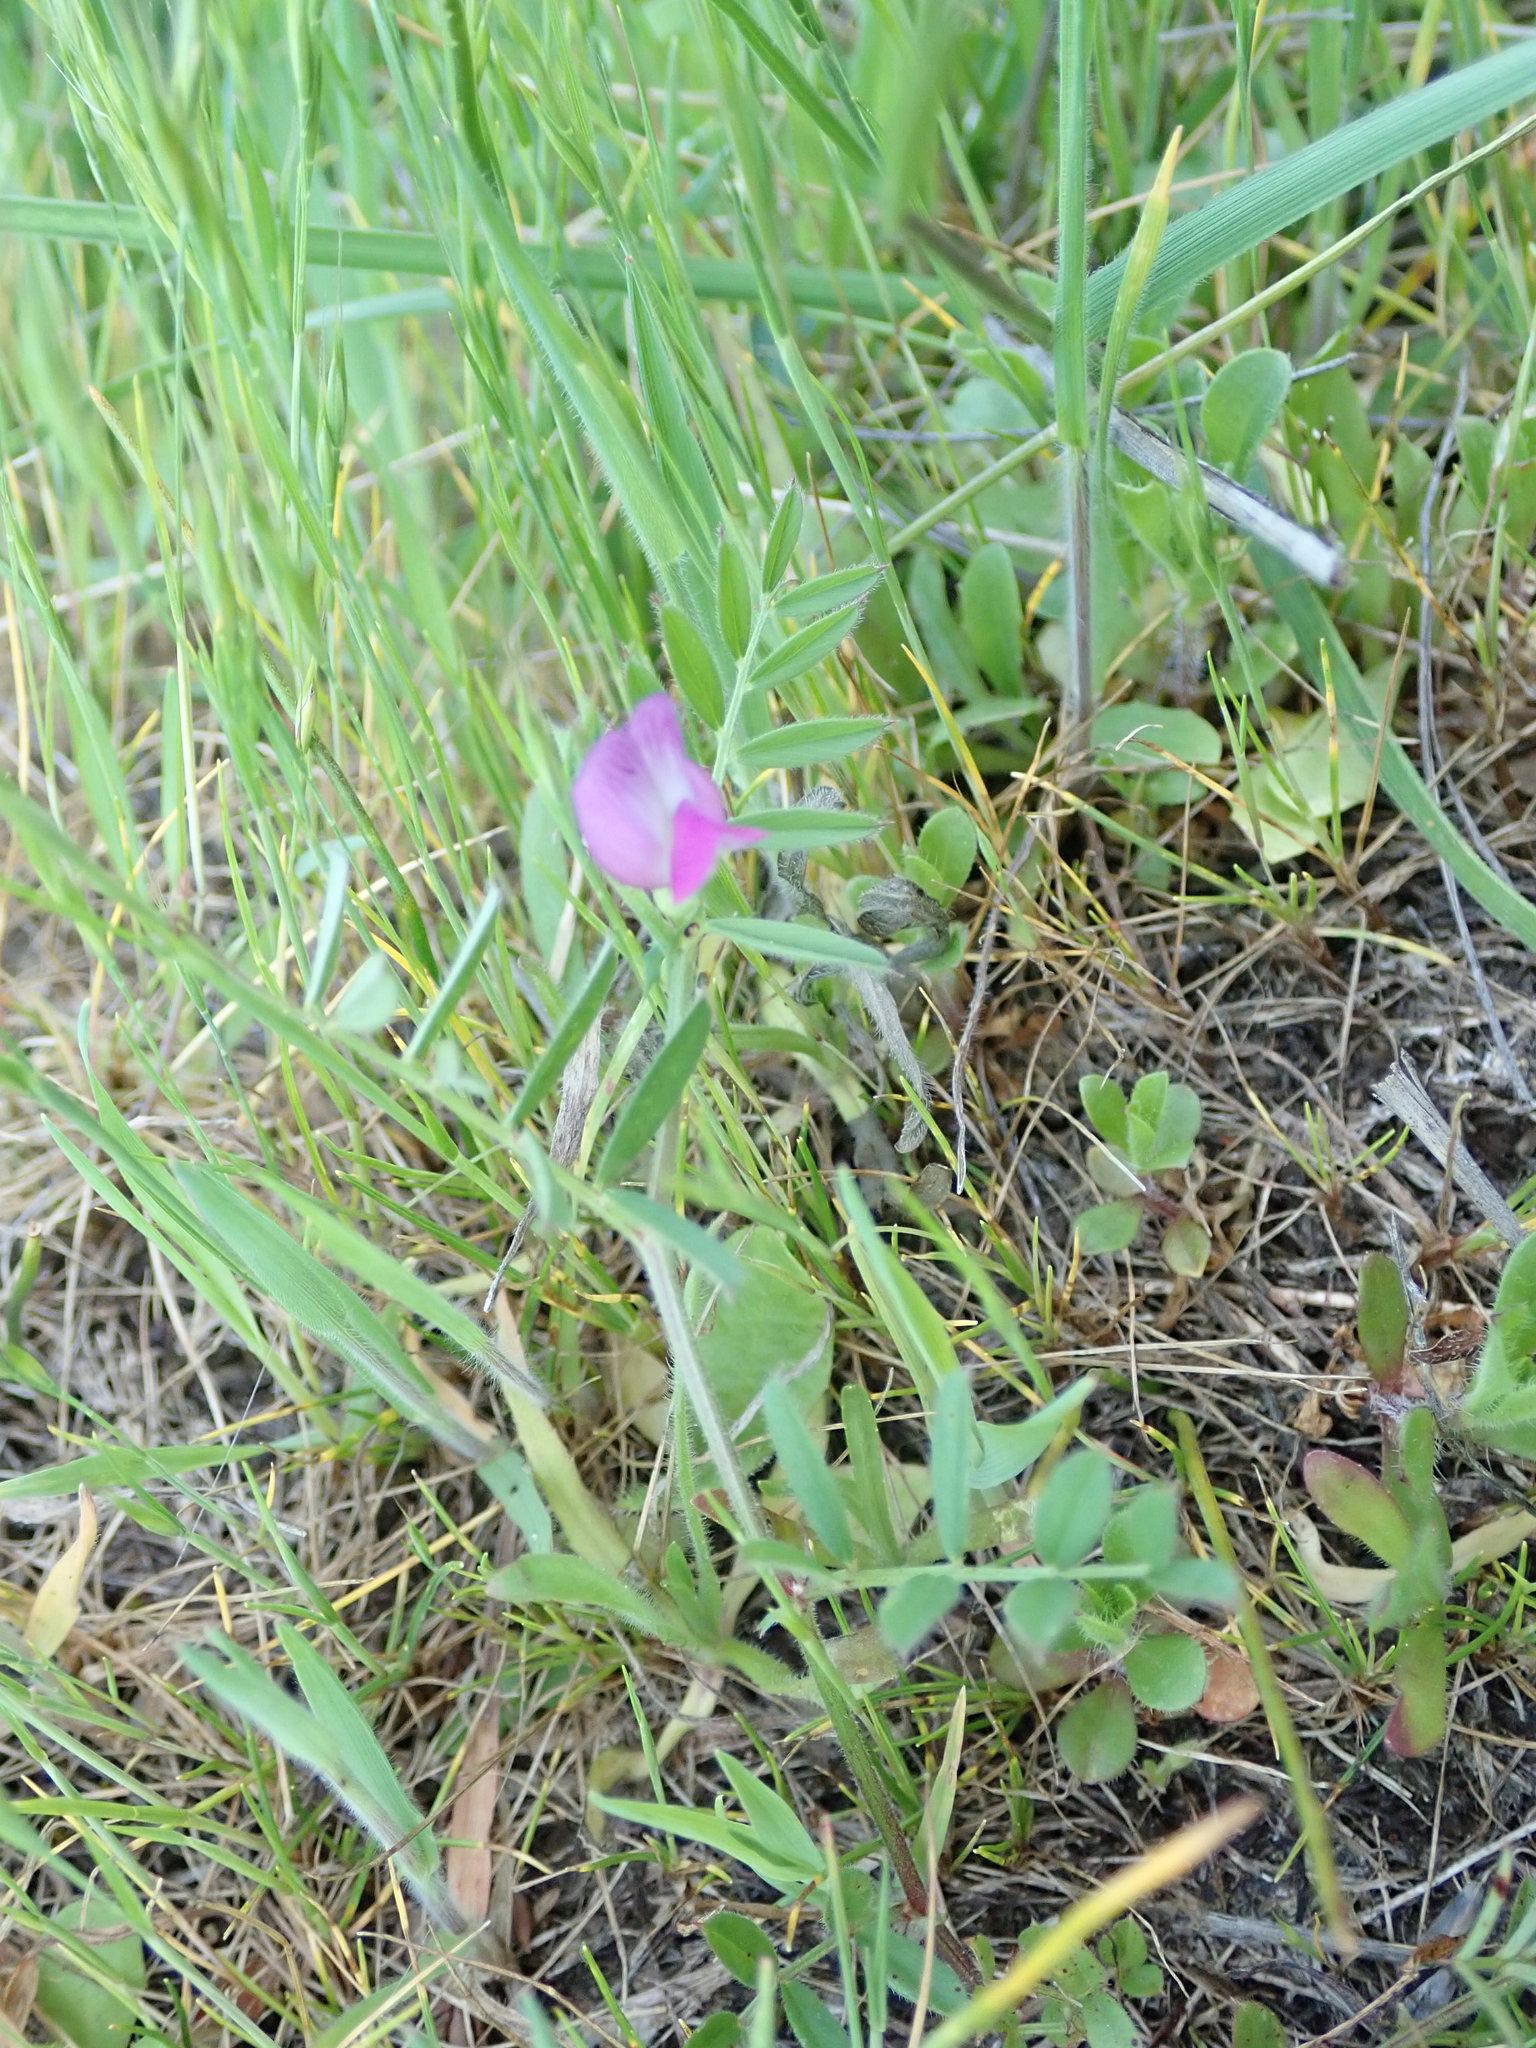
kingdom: Plantae
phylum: Tracheophyta
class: Magnoliopsida
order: Fabales
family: Fabaceae
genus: Vicia
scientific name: Vicia sativa
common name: Garden vetch
